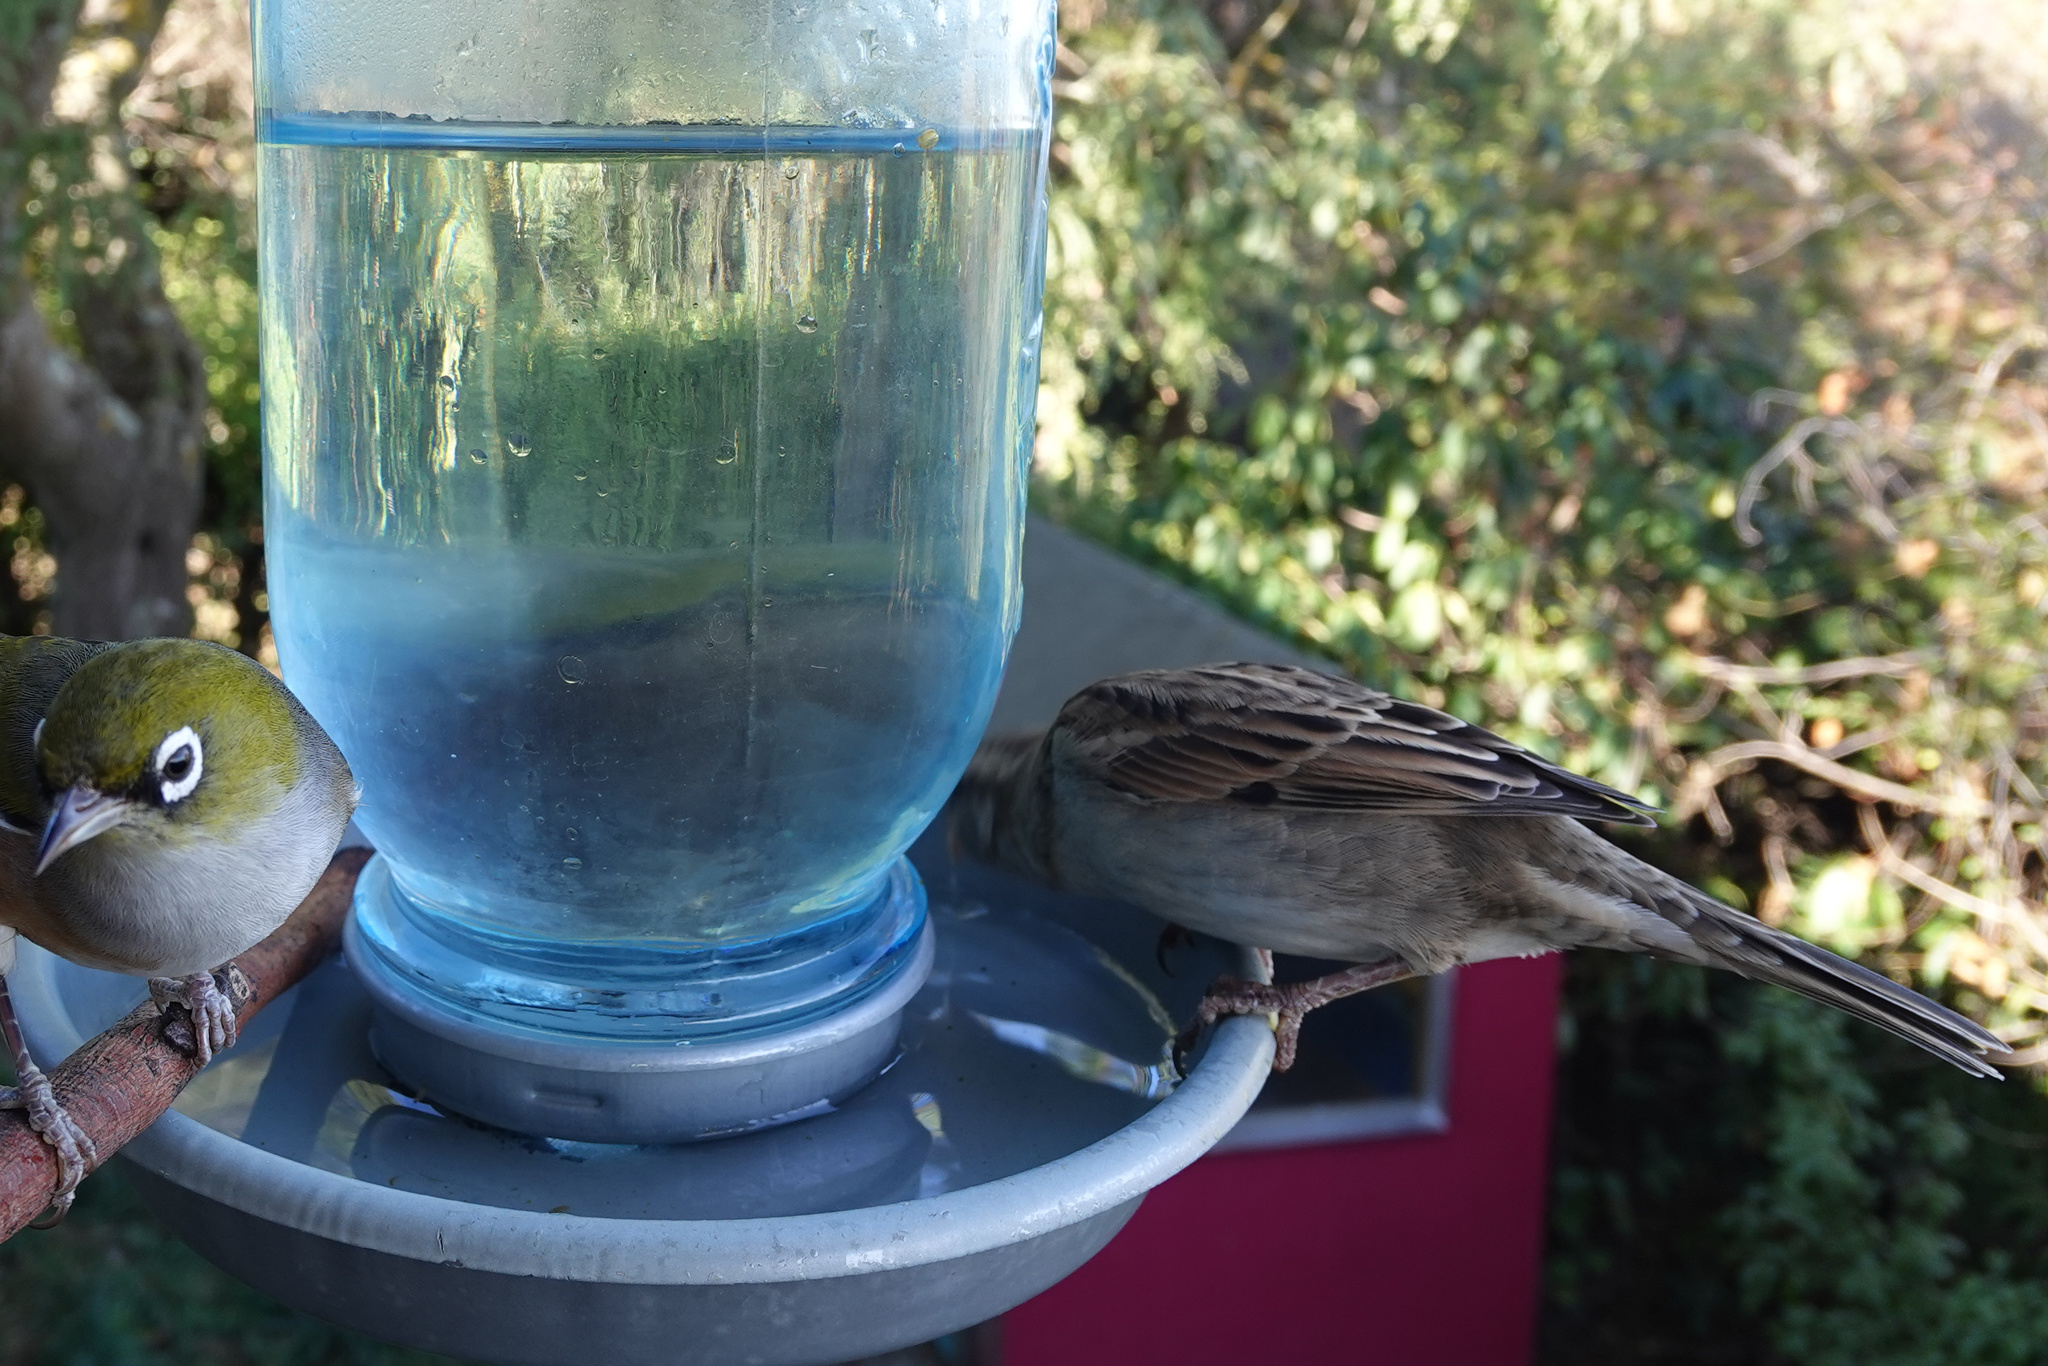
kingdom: Animalia
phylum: Chordata
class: Aves
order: Passeriformes
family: Passeridae
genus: Passer
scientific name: Passer domesticus
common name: House sparrow
